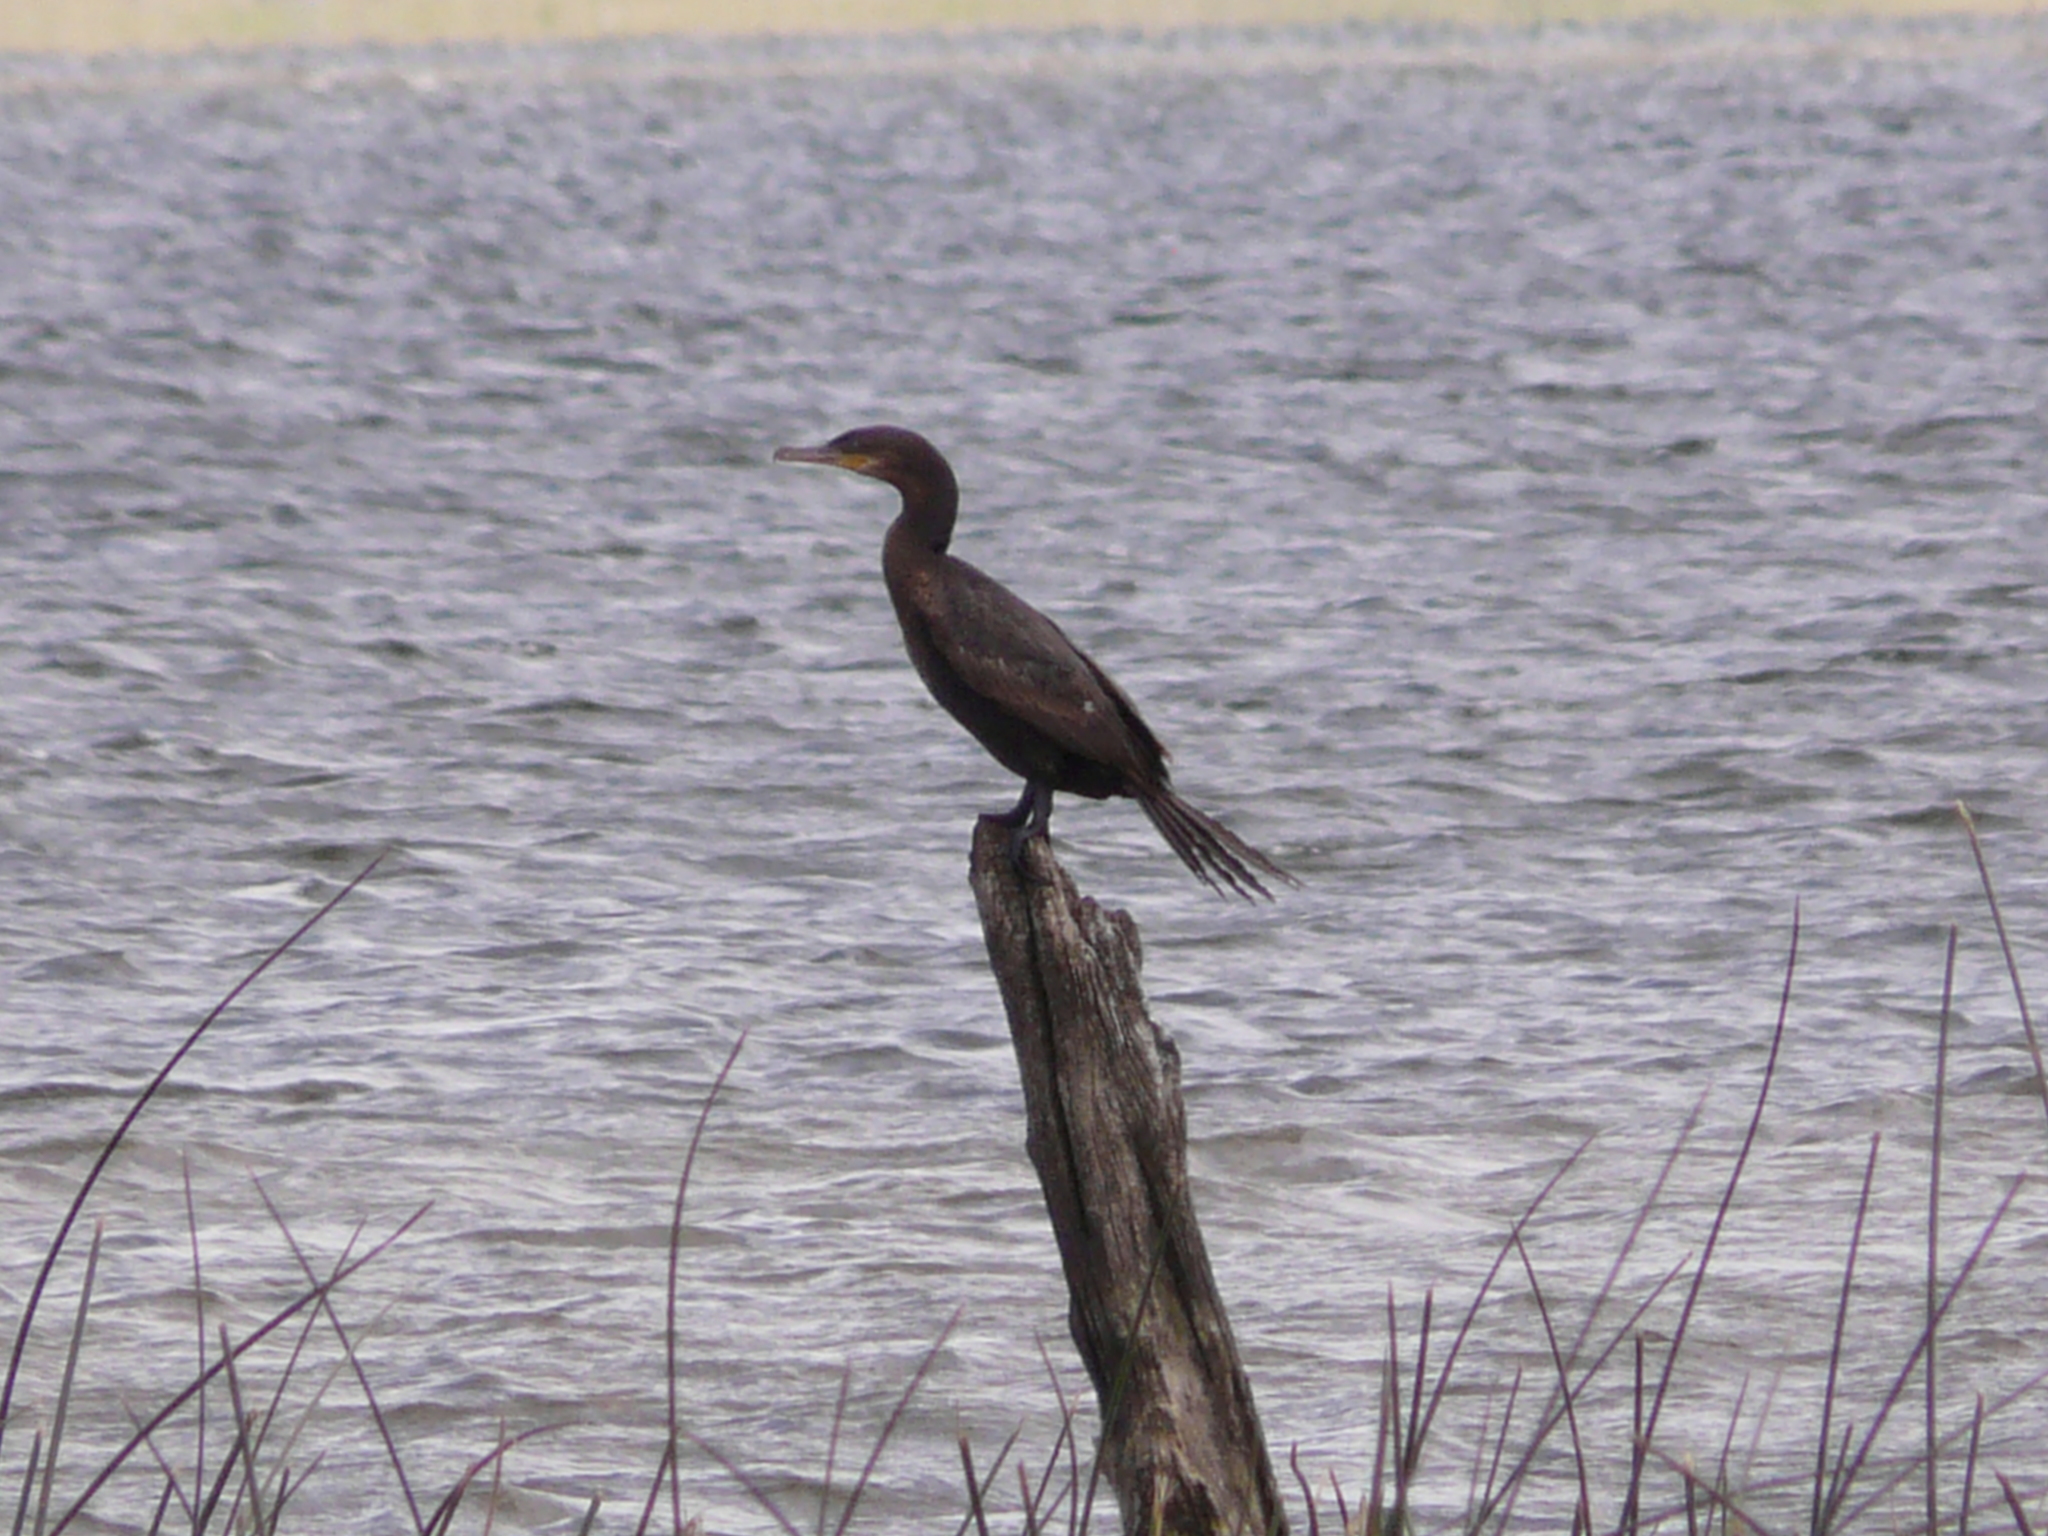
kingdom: Animalia
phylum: Chordata
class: Aves
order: Suliformes
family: Phalacrocoracidae
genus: Phalacrocorax
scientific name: Phalacrocorax brasilianus
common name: Neotropic cormorant
